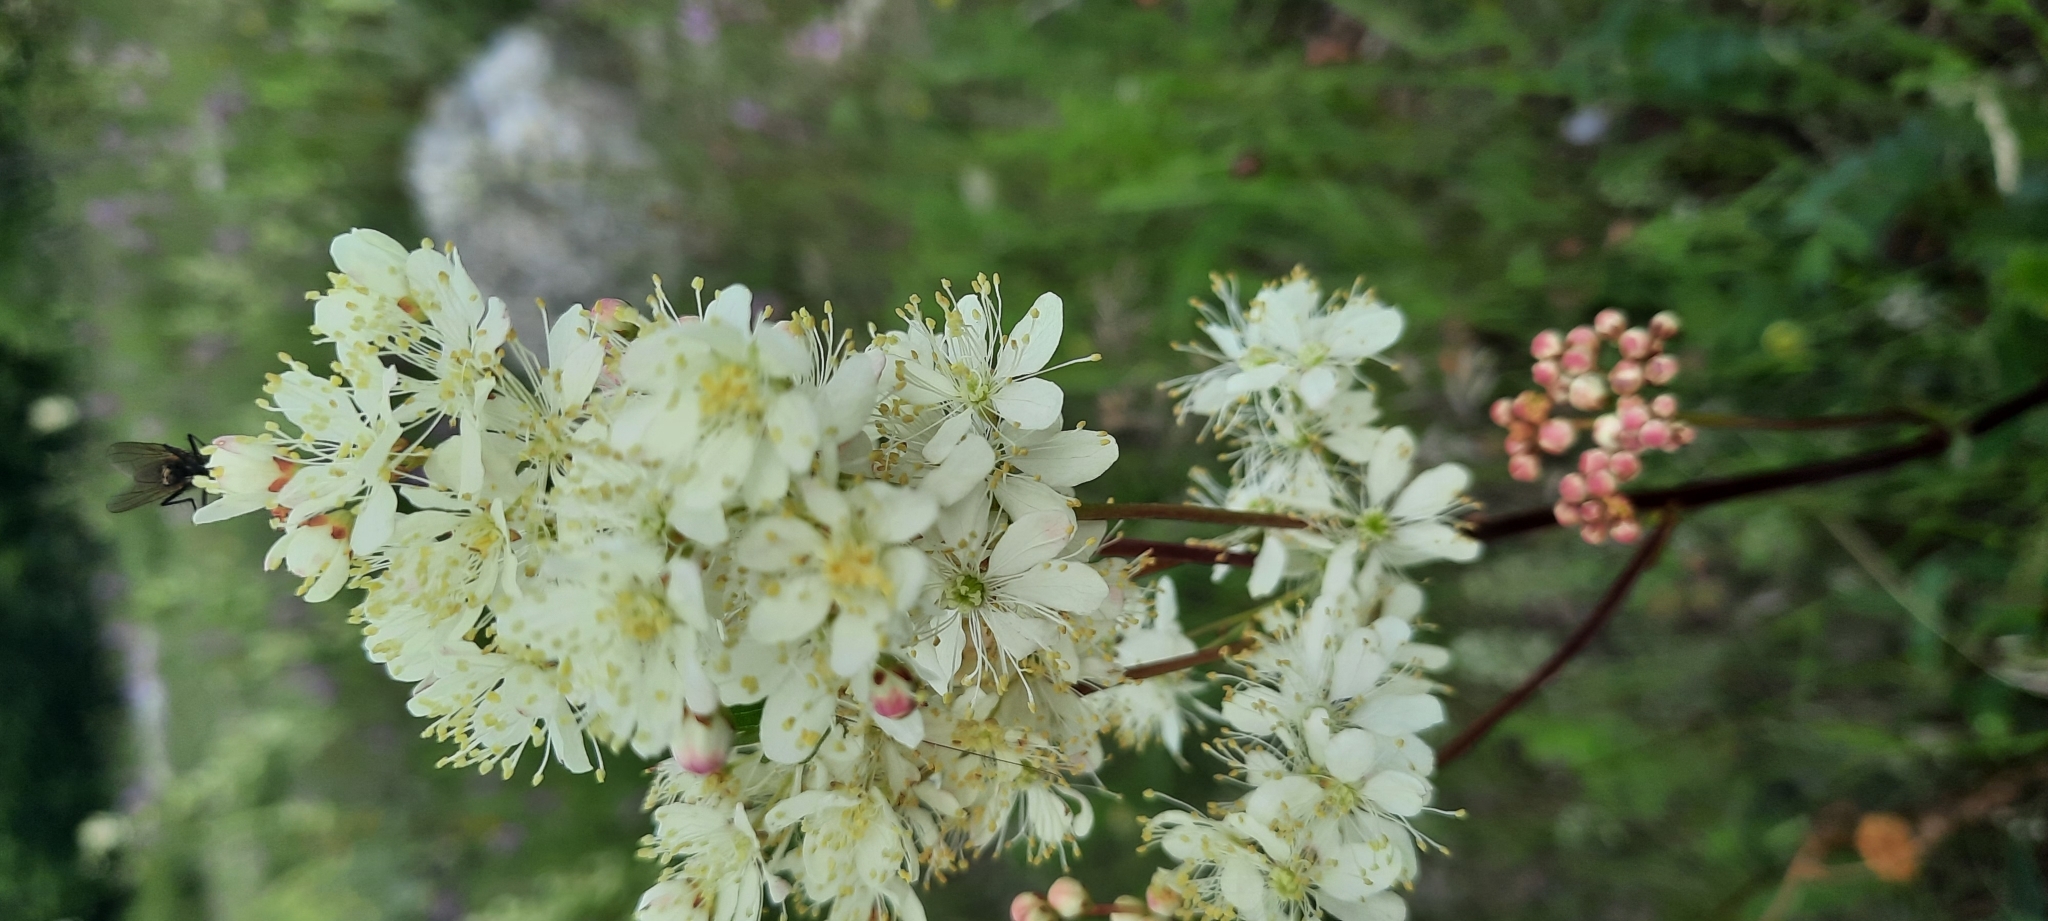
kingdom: Plantae
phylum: Tracheophyta
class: Magnoliopsida
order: Rosales
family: Rosaceae
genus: Filipendula
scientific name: Filipendula vulgaris
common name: Dropwort
